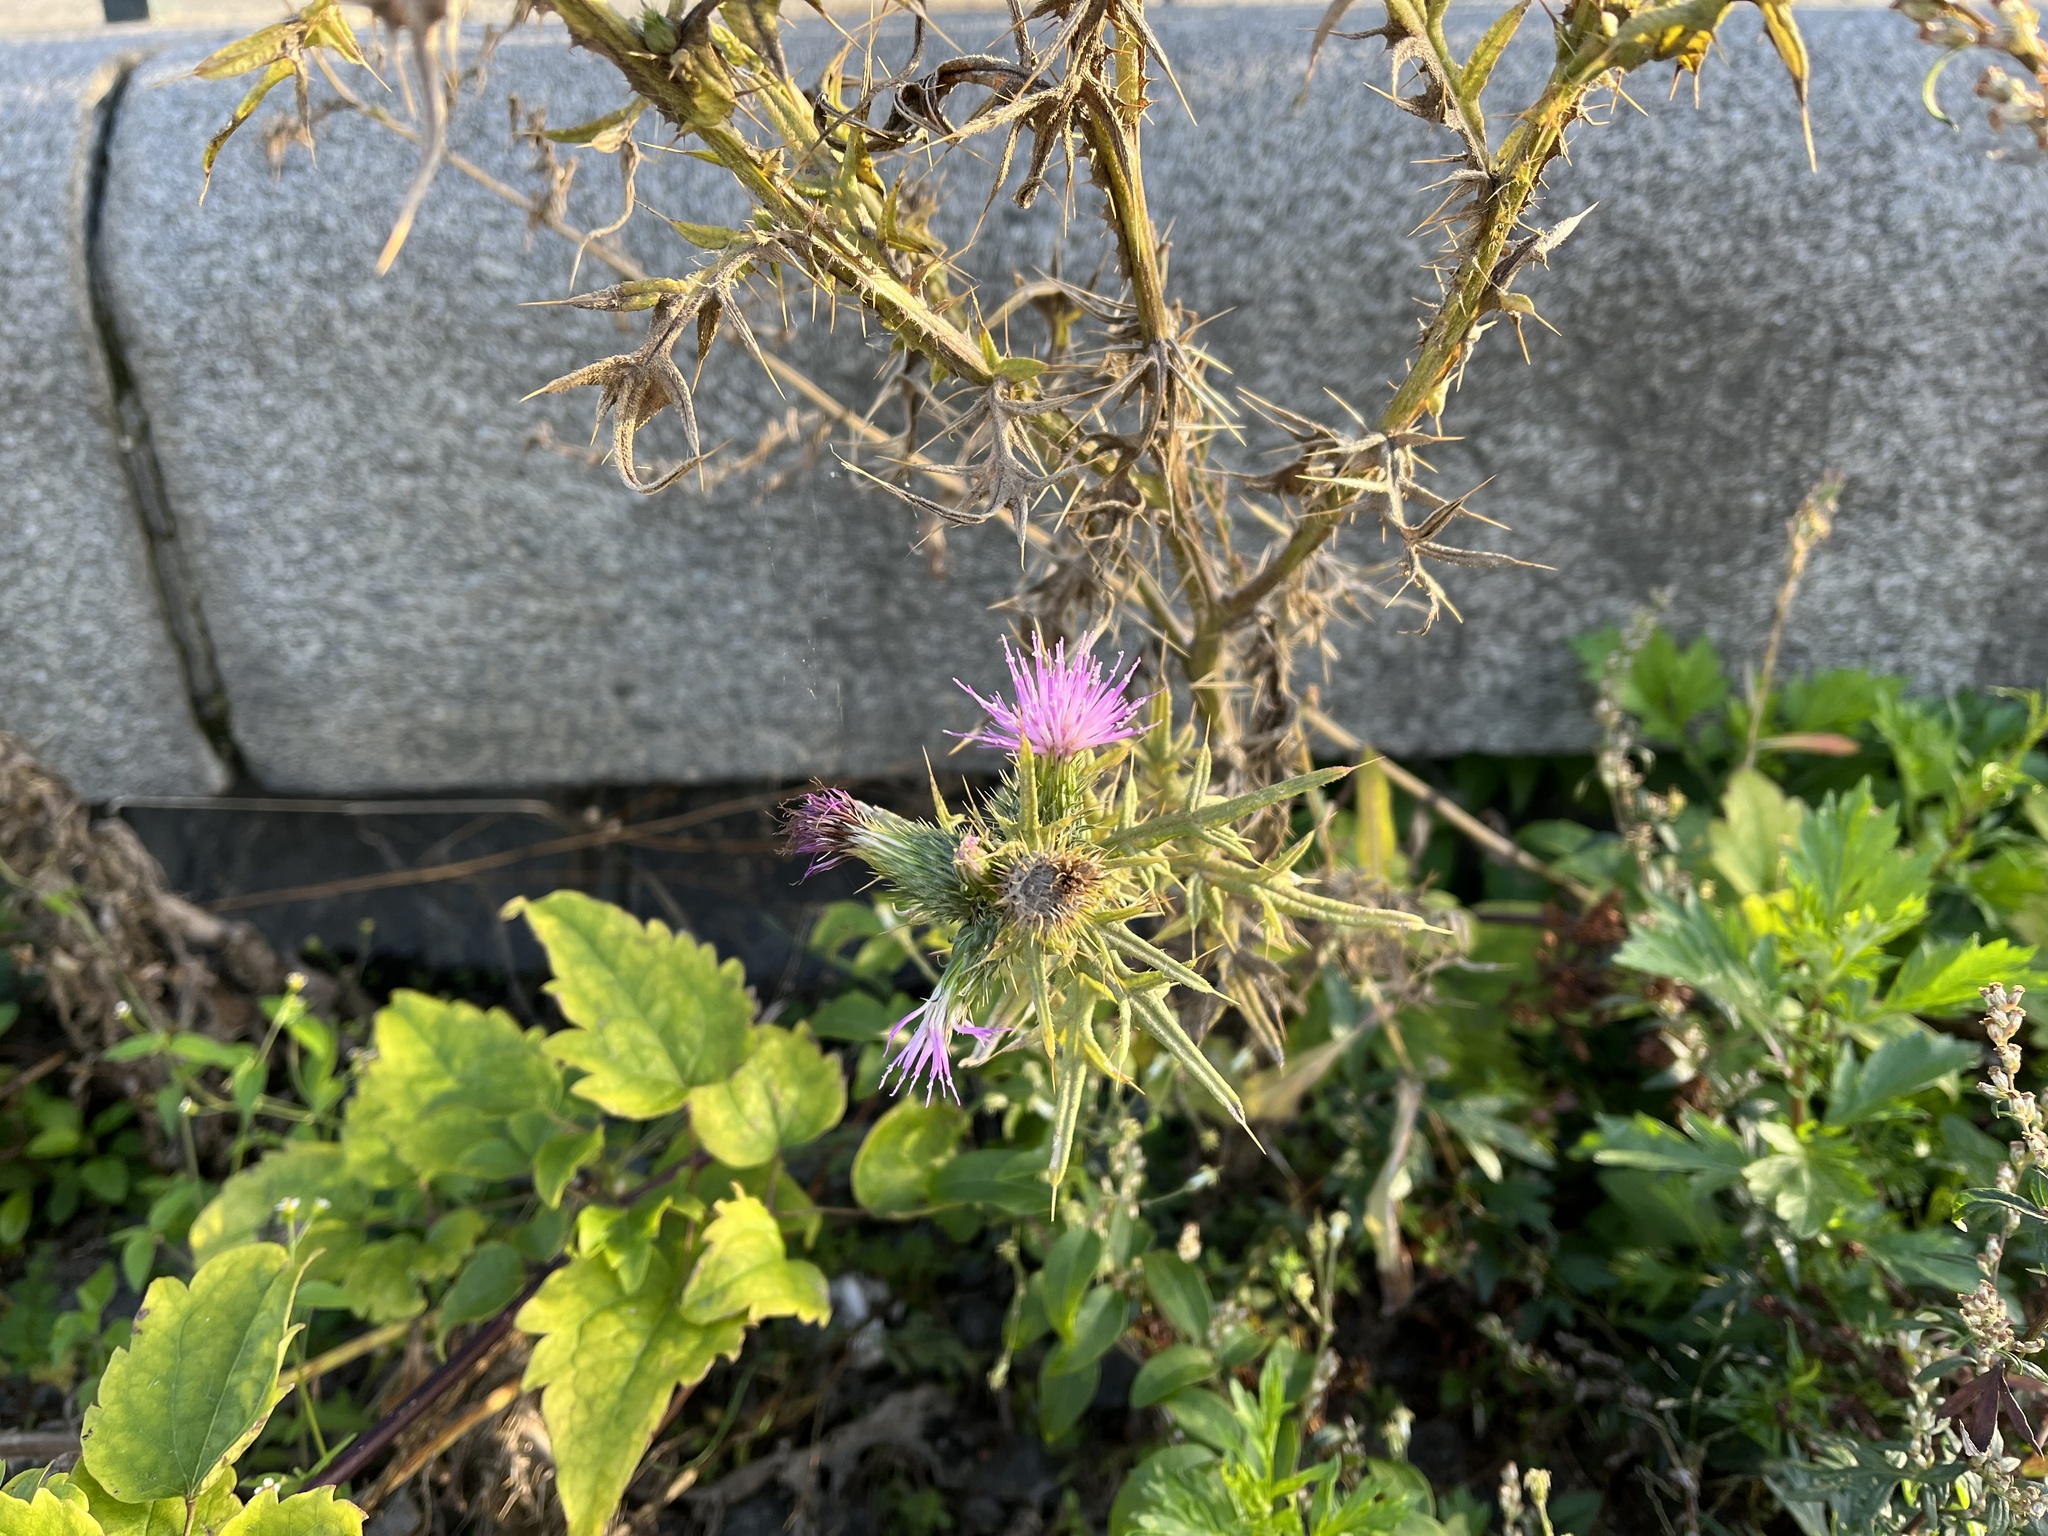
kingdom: Plantae
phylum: Tracheophyta
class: Magnoliopsida
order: Asterales
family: Asteraceae
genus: Cirsium
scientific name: Cirsium vulgare
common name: Bull thistle
